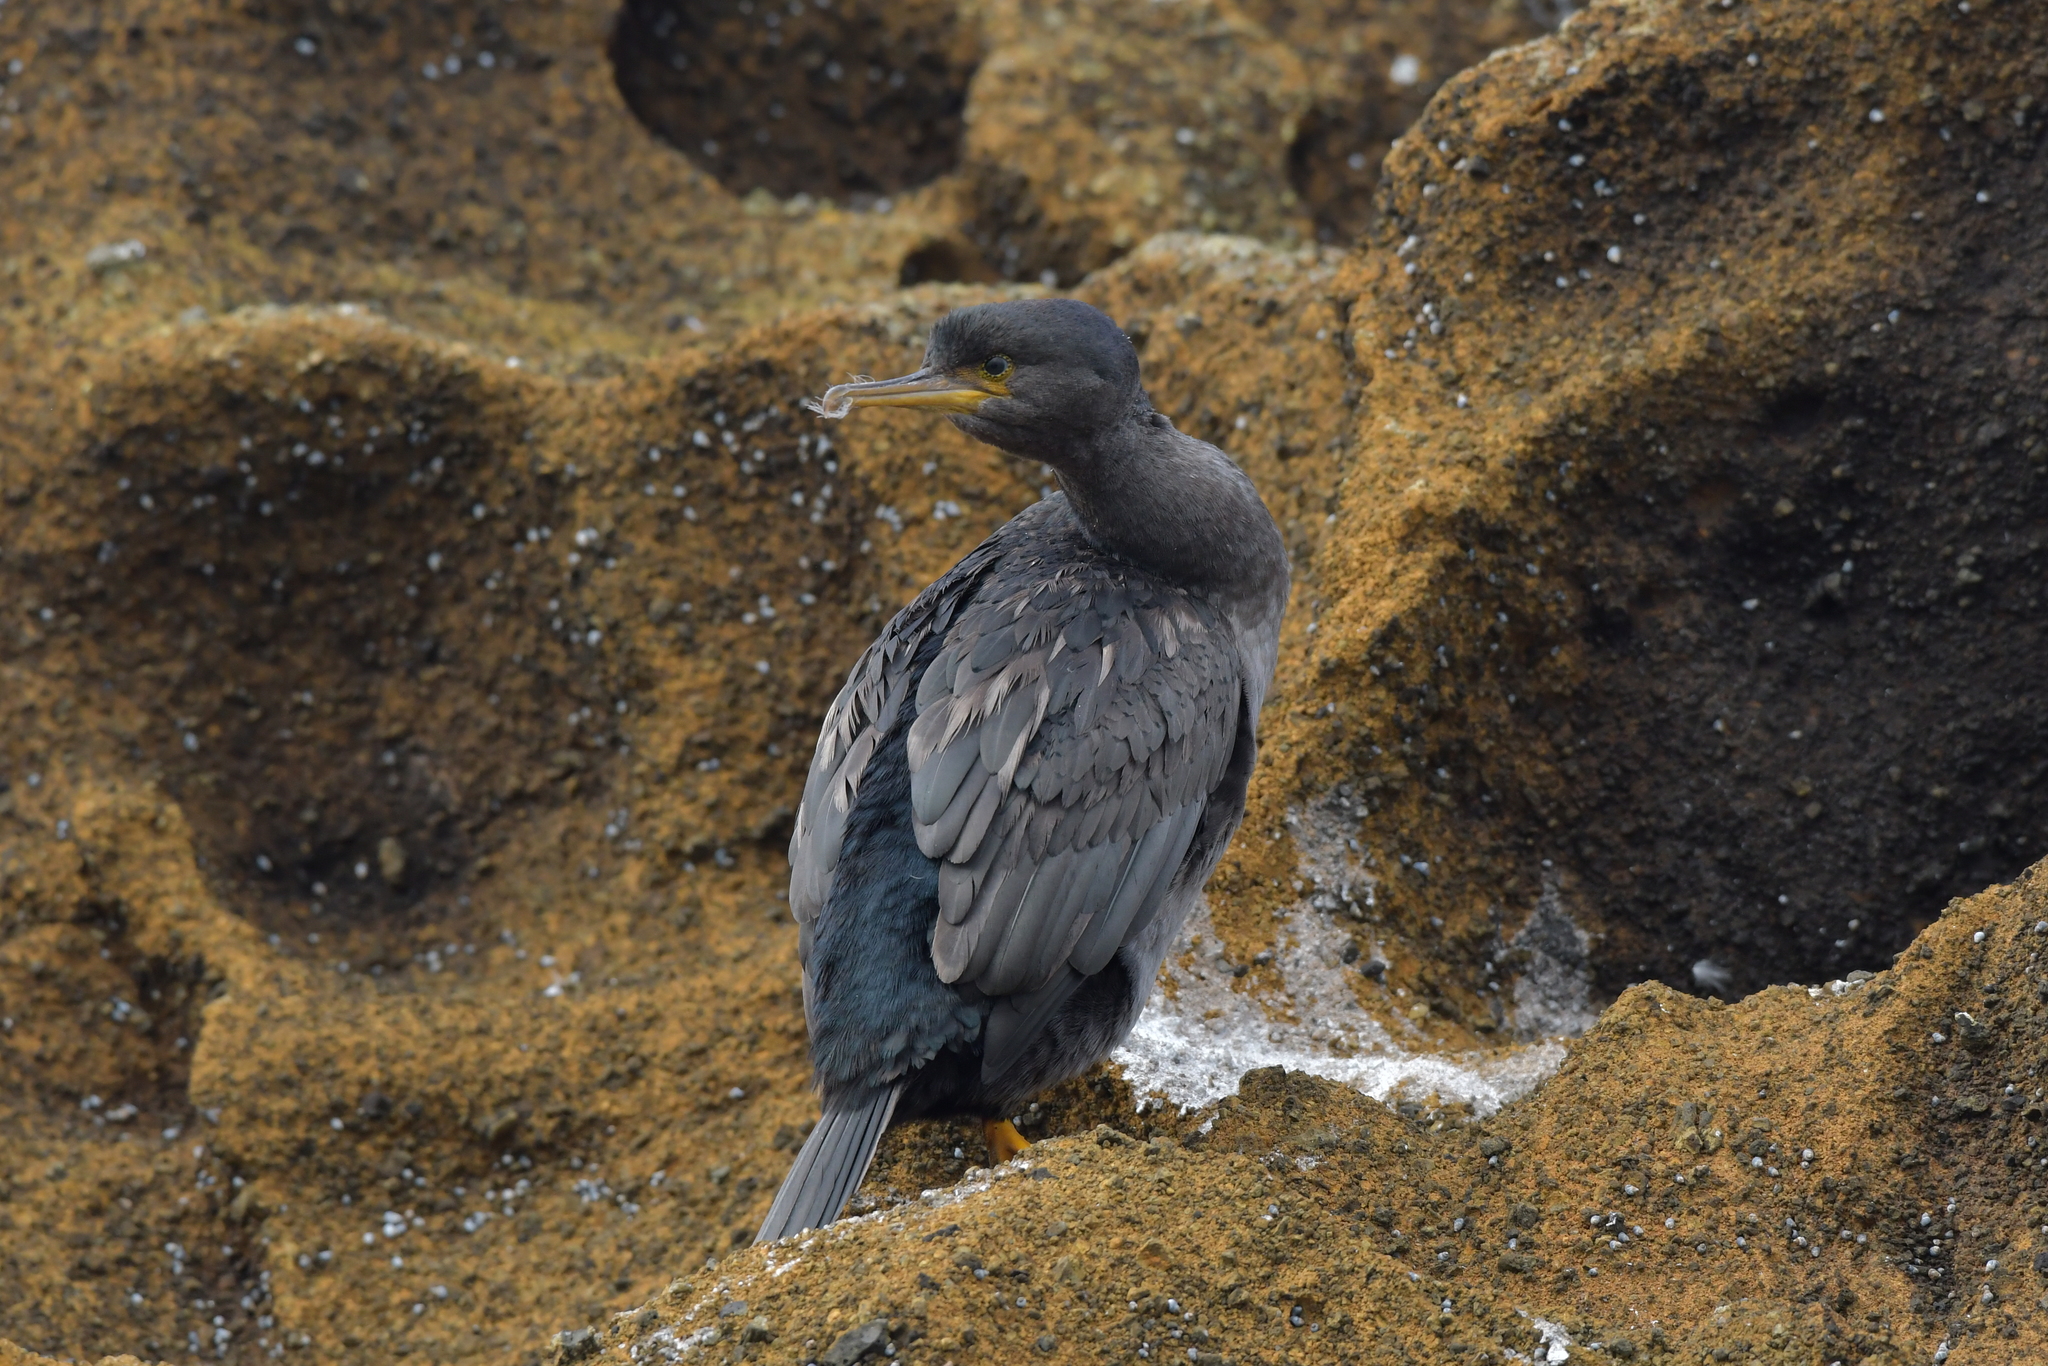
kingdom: Animalia
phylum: Chordata
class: Aves
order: Suliformes
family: Phalacrocoracidae
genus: Phalacrocorax
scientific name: Phalacrocorax featherstoni
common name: Pitt shag
